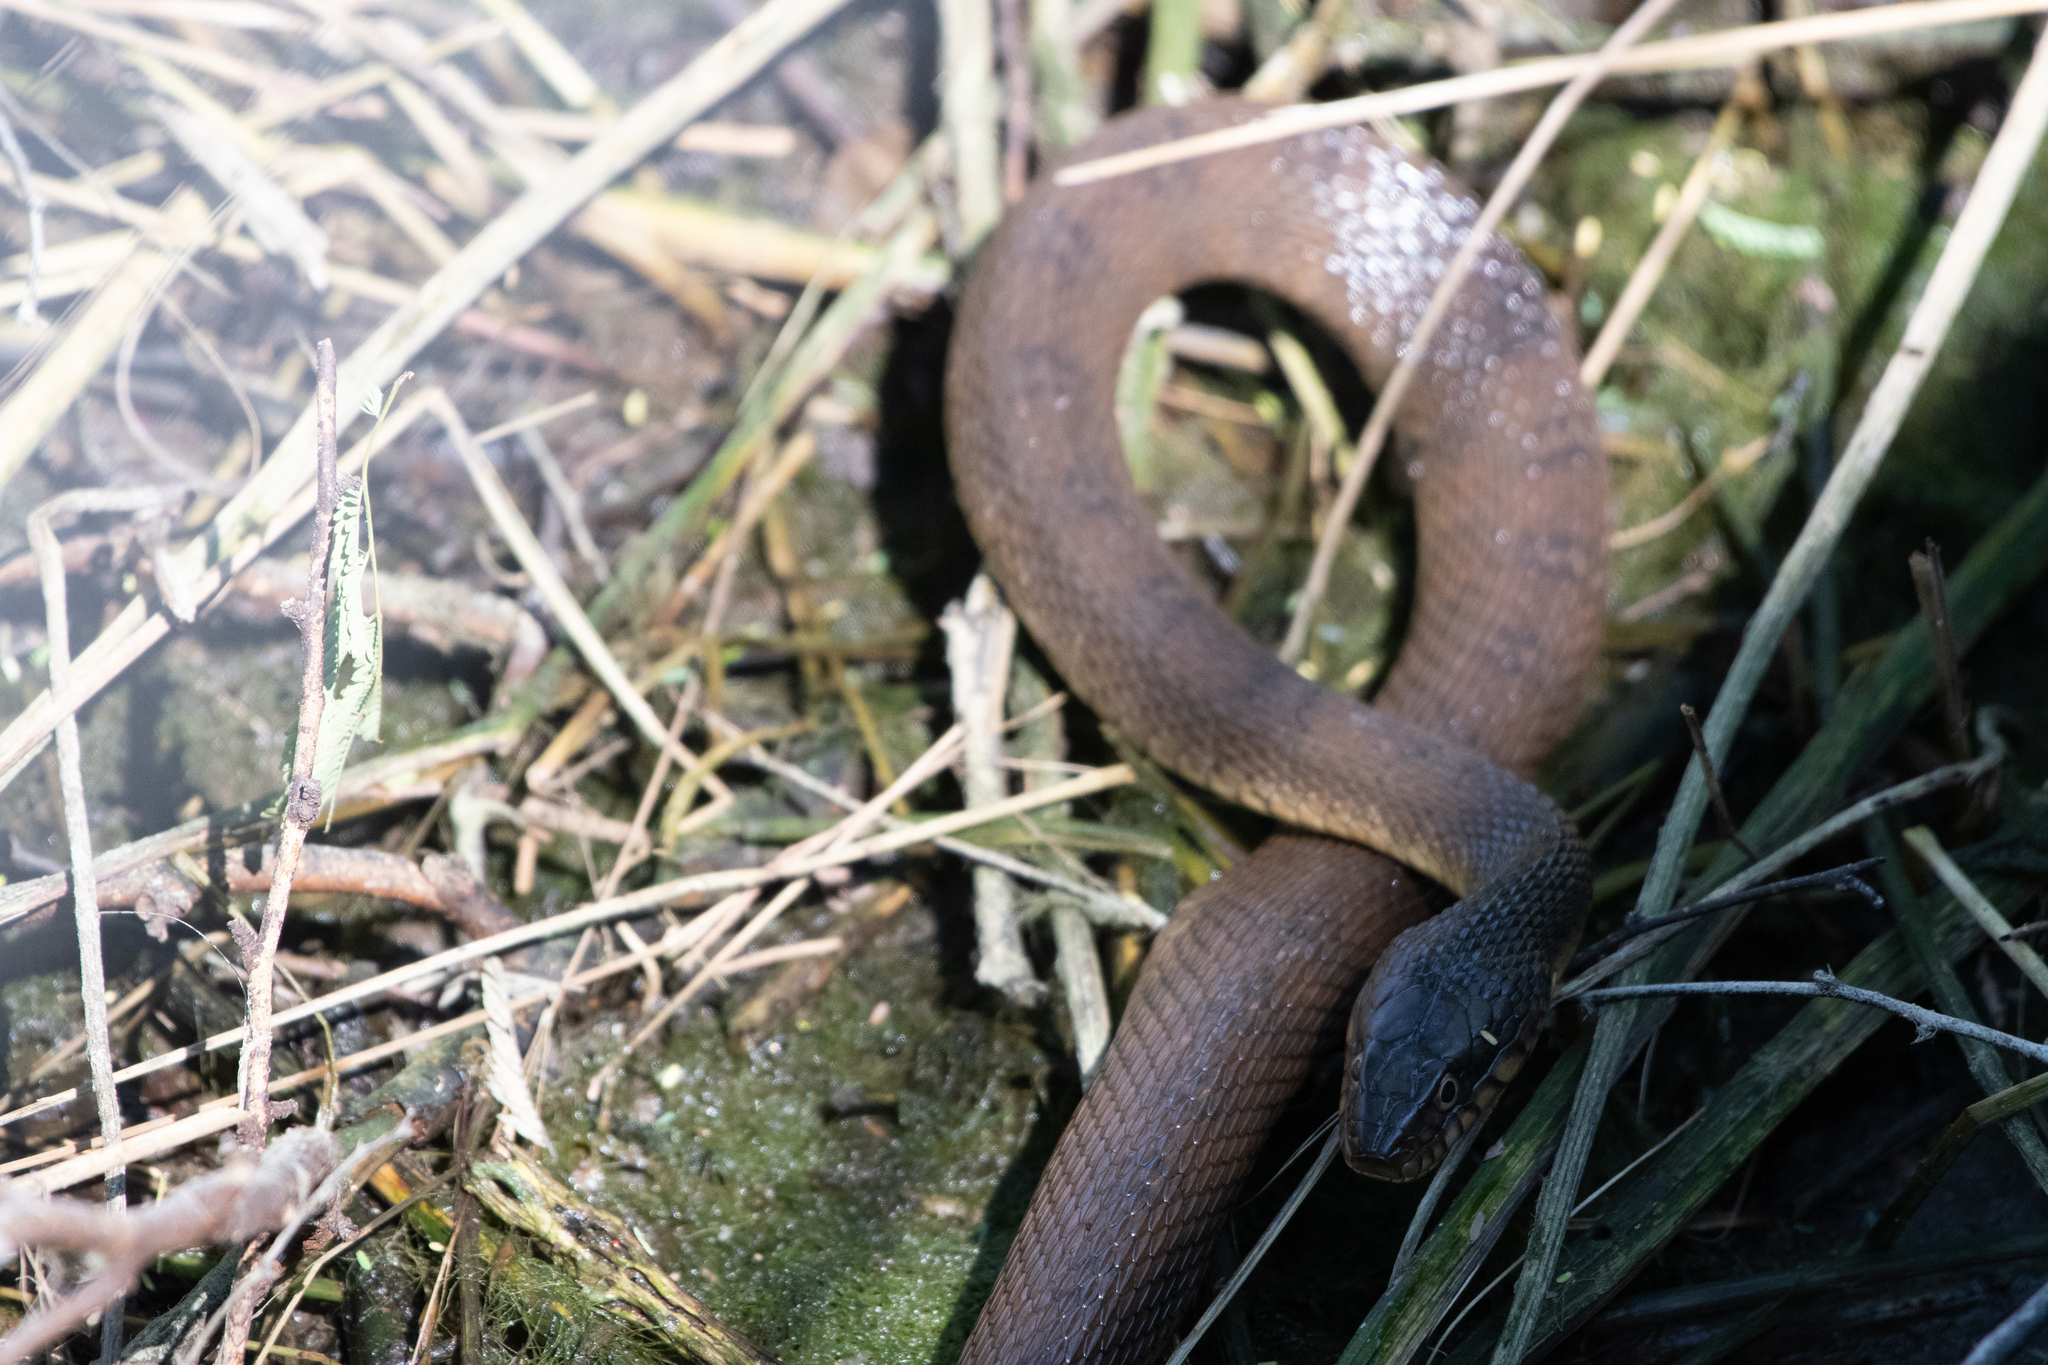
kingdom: Animalia
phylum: Chordata
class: Squamata
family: Colubridae
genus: Nerodia
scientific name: Nerodia erythrogaster
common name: Plainbelly water snake
